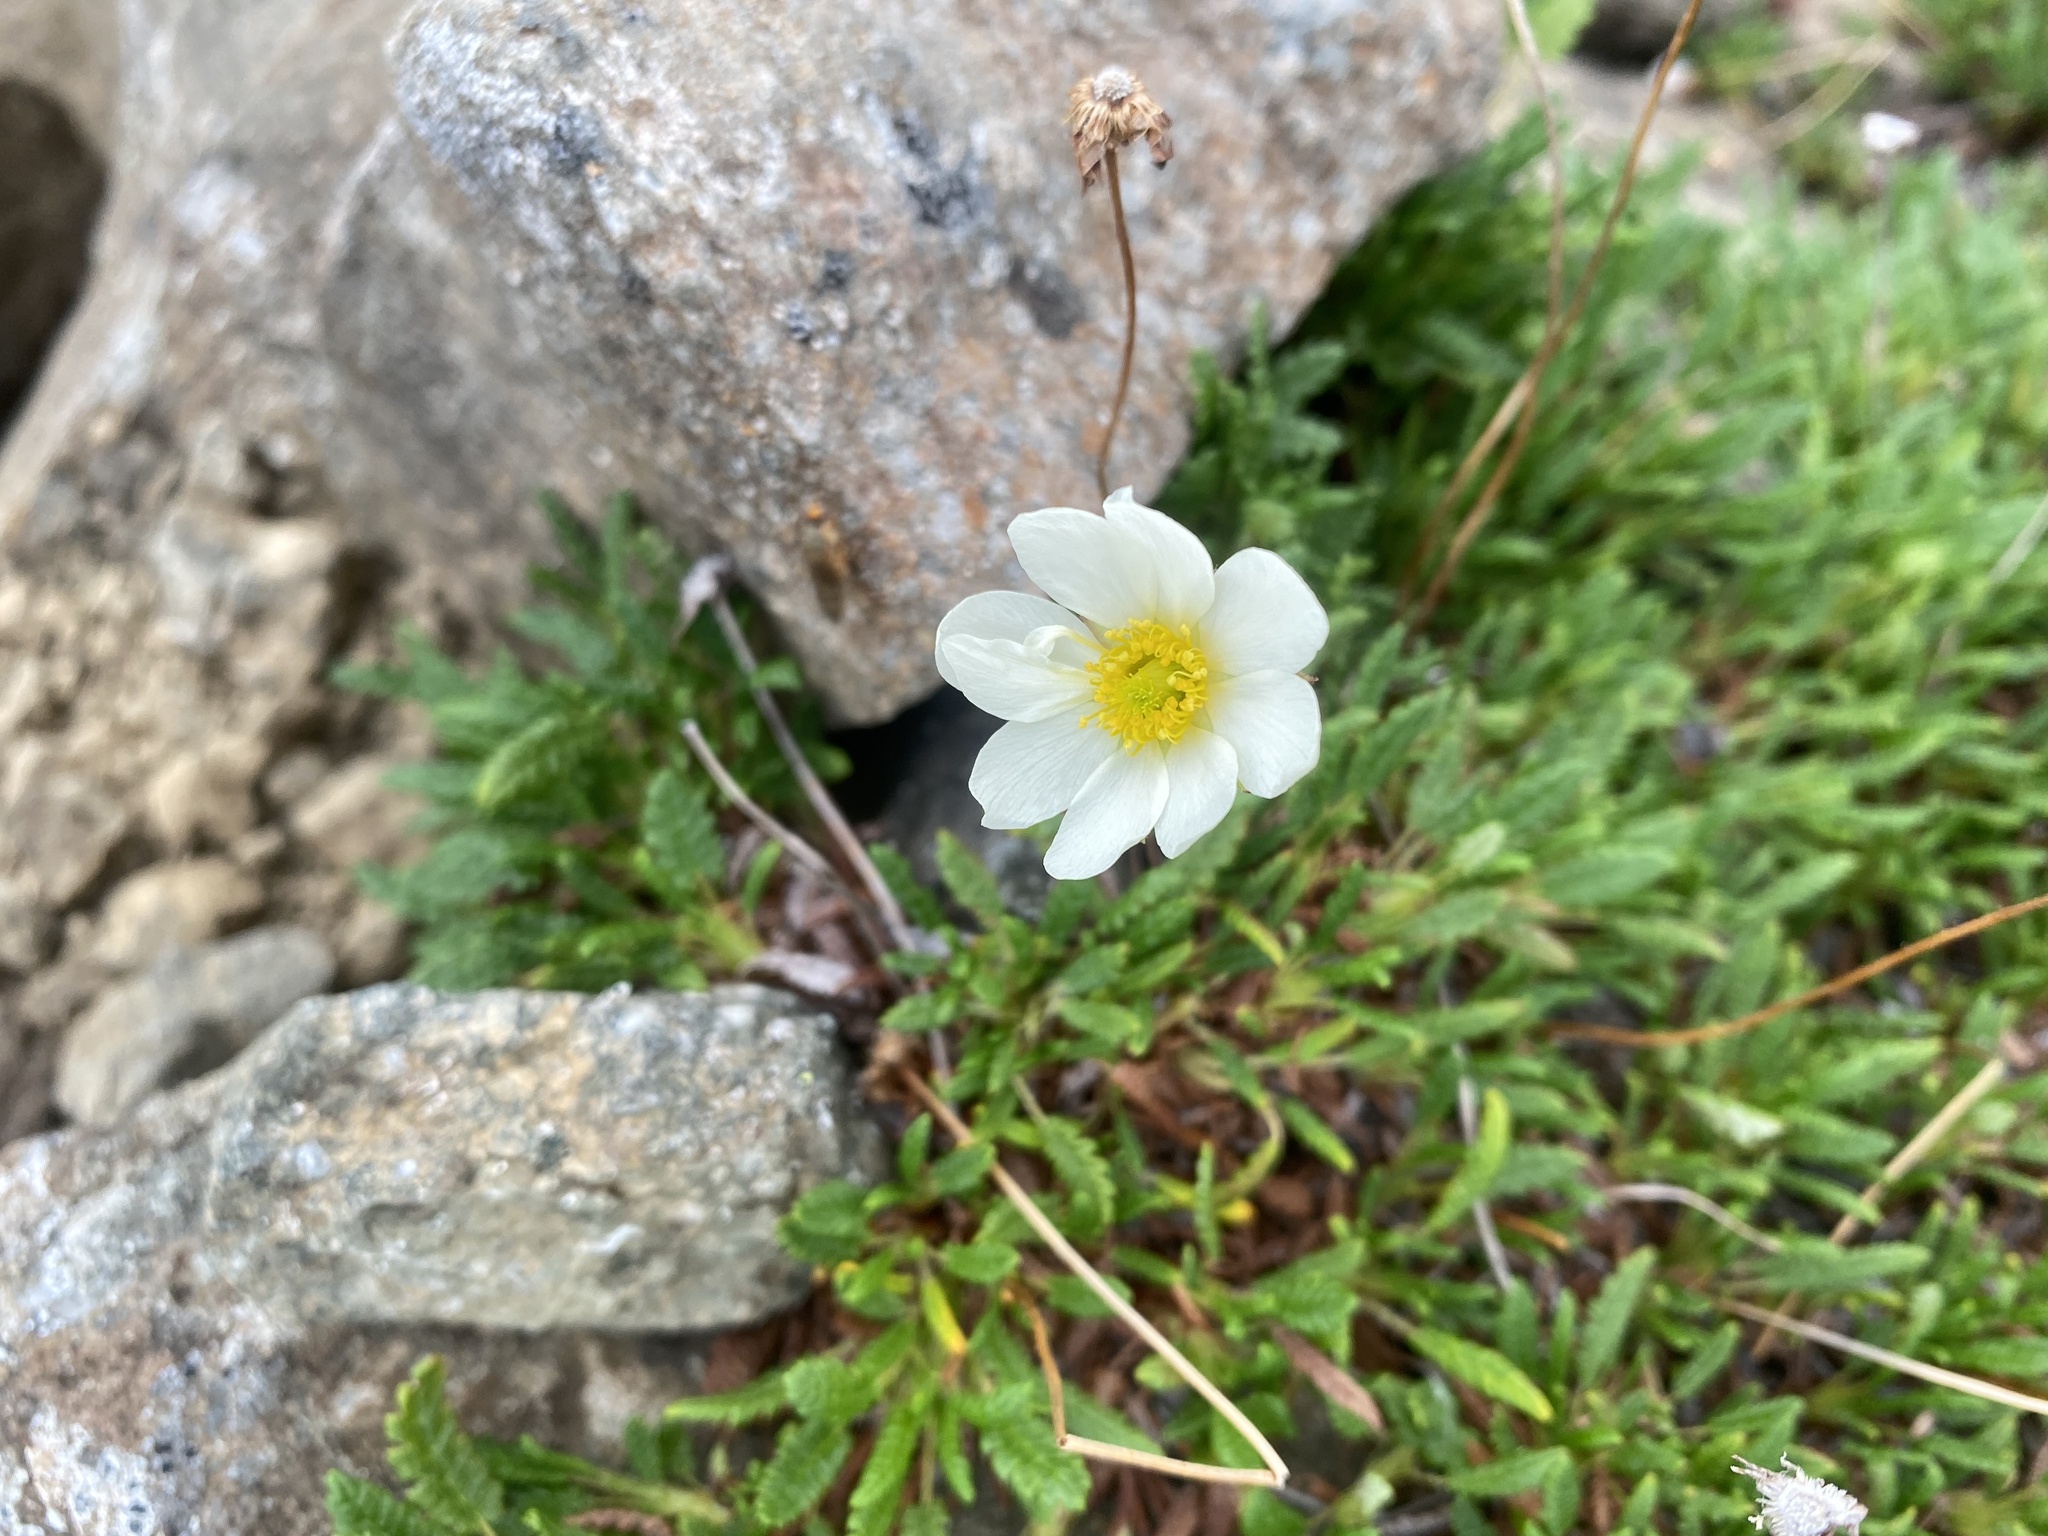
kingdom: Plantae
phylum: Tracheophyta
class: Magnoliopsida
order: Rosales
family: Rosaceae
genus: Dryas
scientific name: Dryas octopetala
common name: Eight-petal mountain-avens
